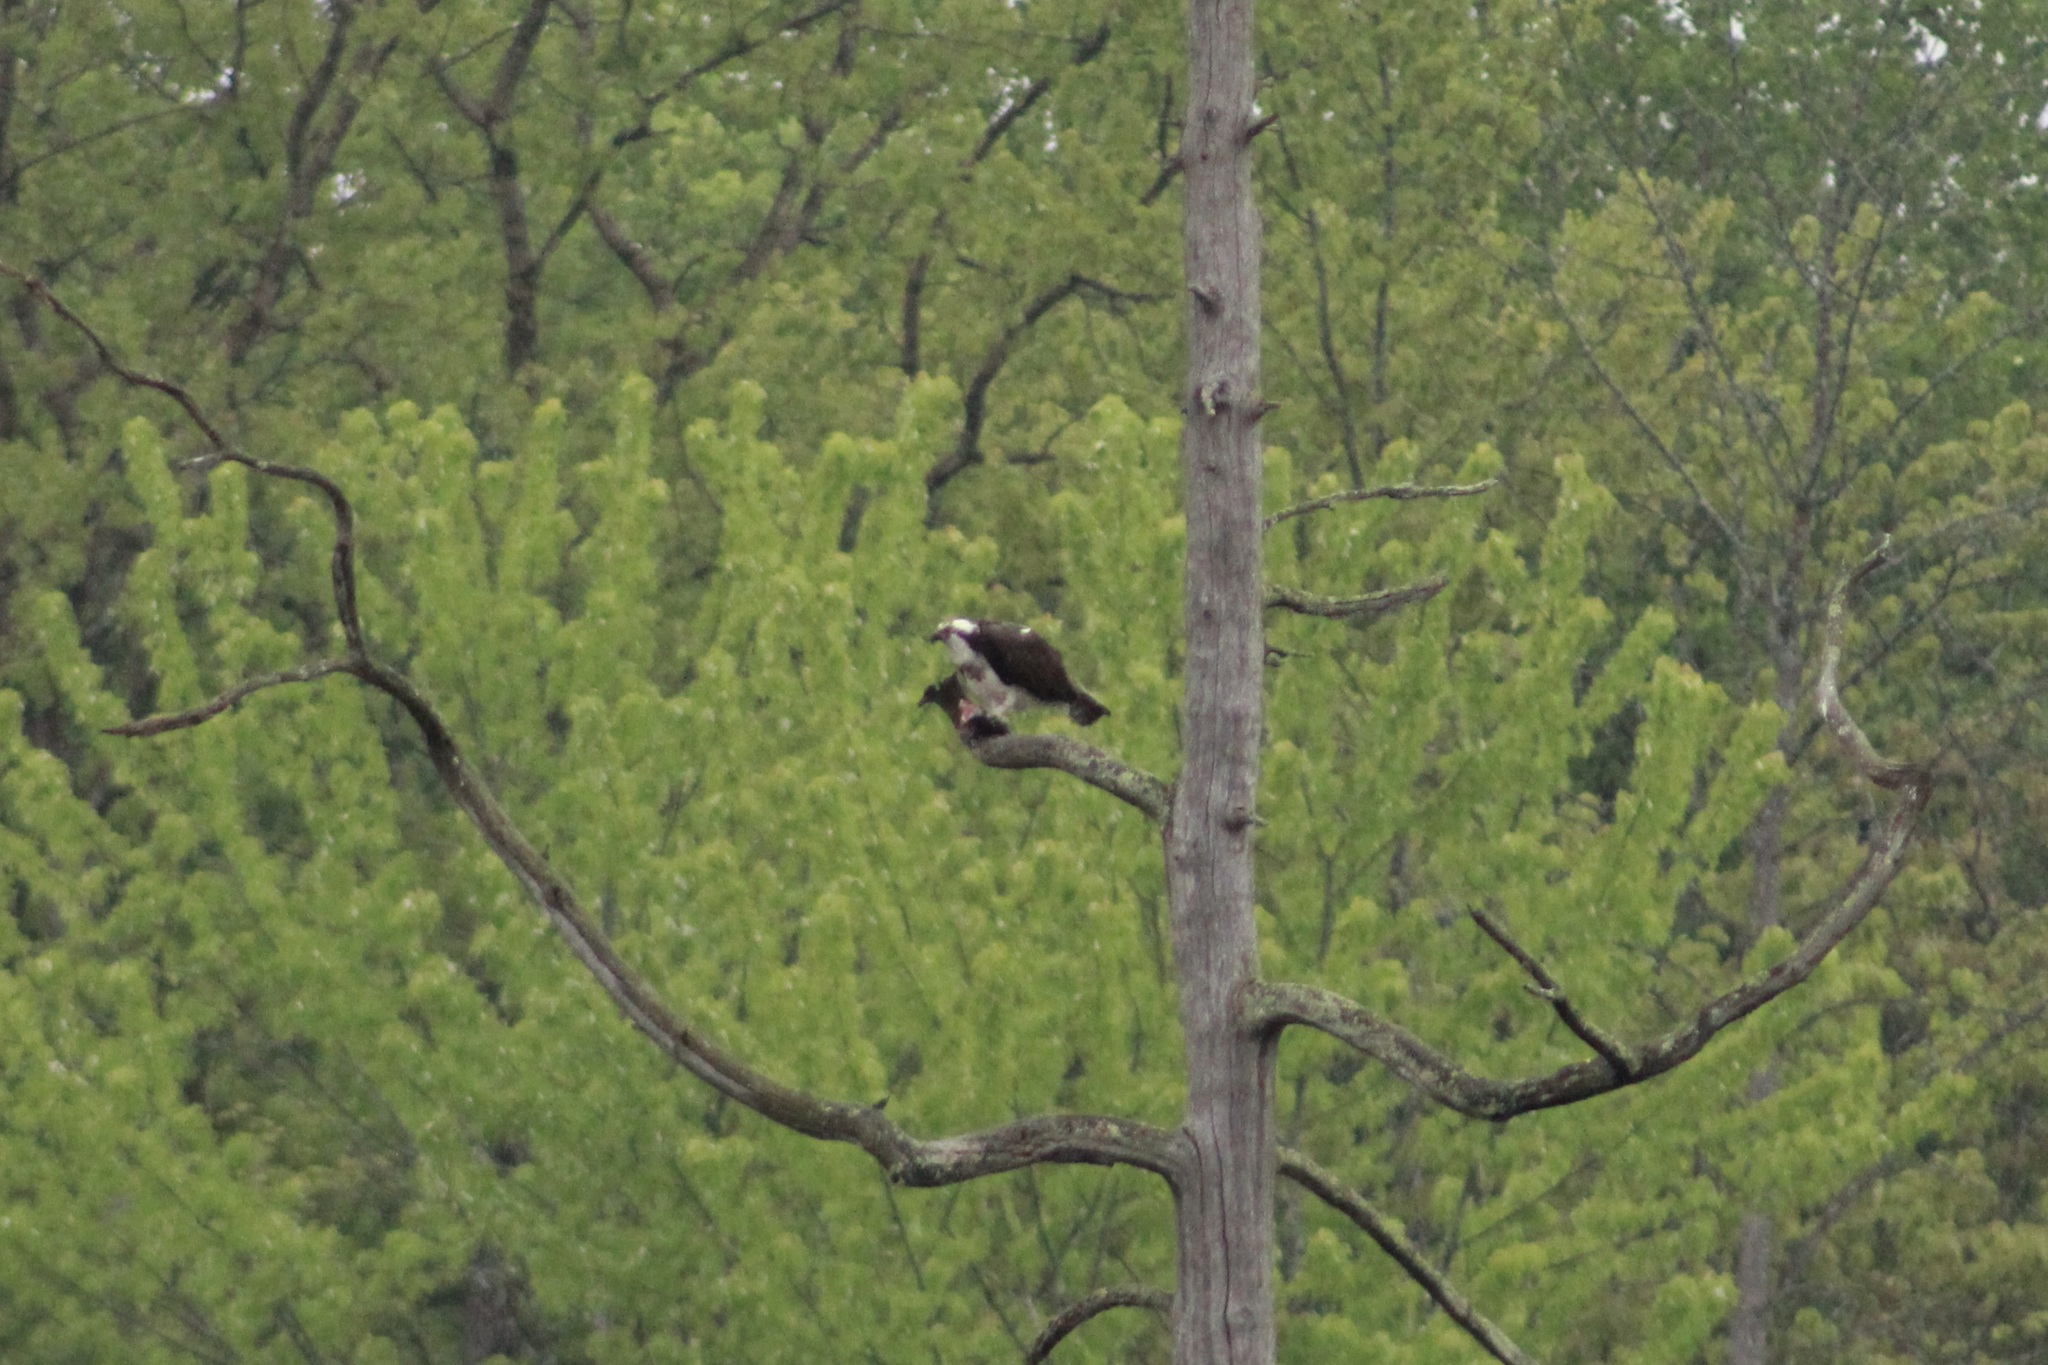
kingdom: Animalia
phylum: Chordata
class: Aves
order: Accipitriformes
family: Pandionidae
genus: Pandion
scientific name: Pandion haliaetus
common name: Osprey
